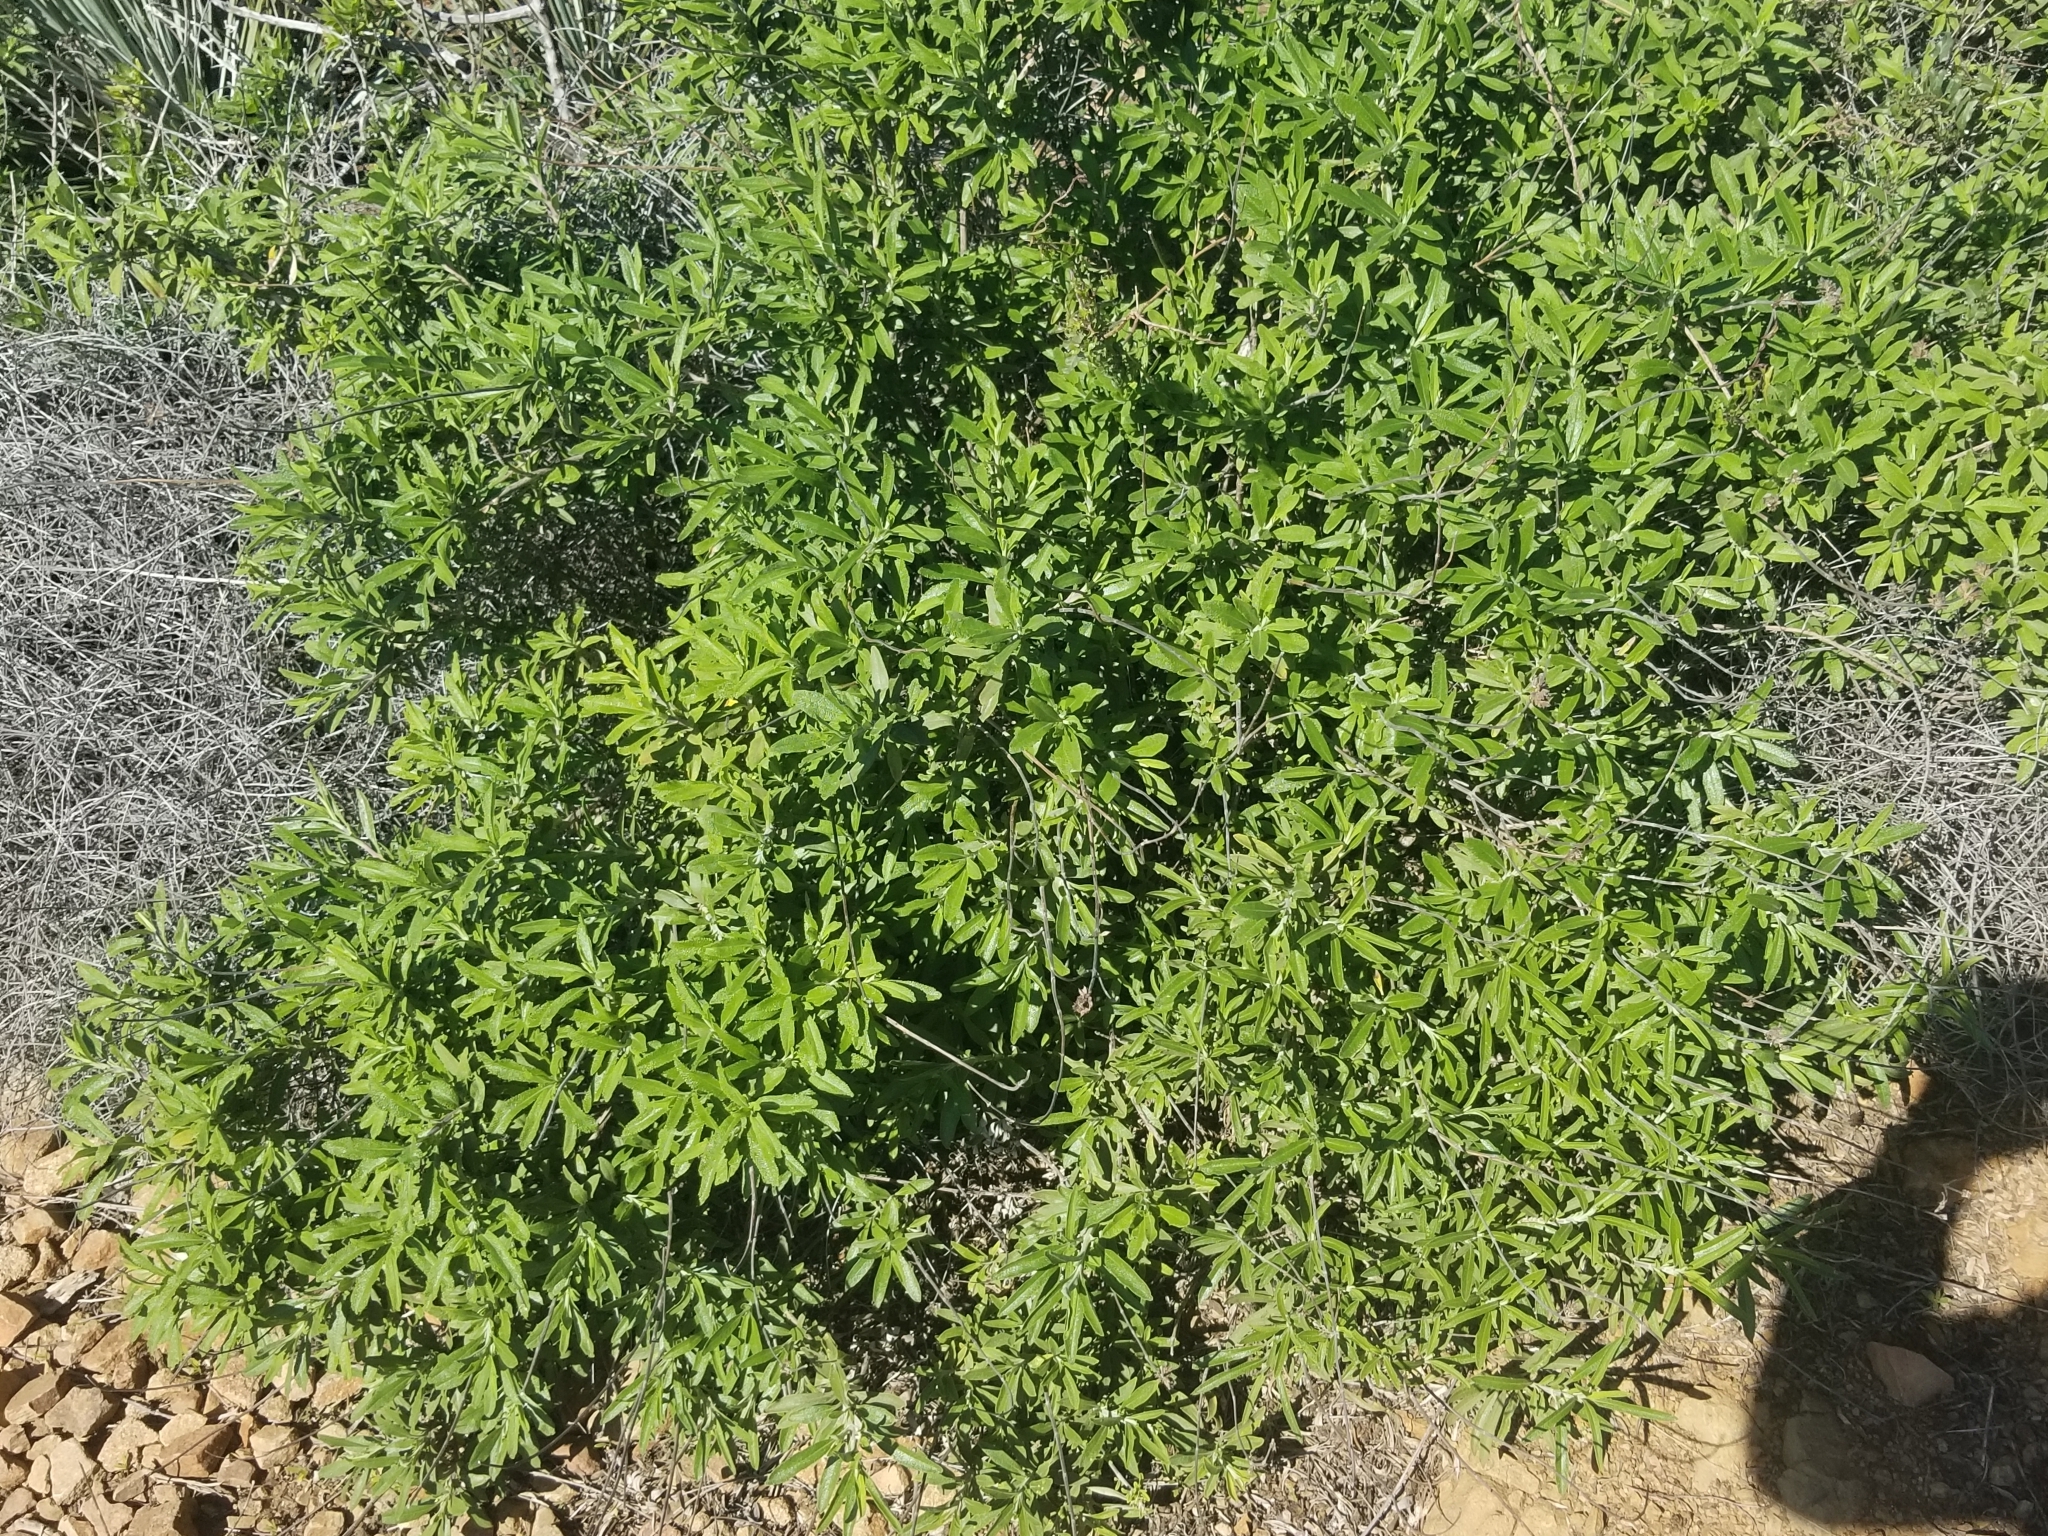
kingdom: Plantae
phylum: Tracheophyta
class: Magnoliopsida
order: Lamiales
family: Lamiaceae
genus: Salvia
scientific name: Salvia mellifera
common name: Black sage
